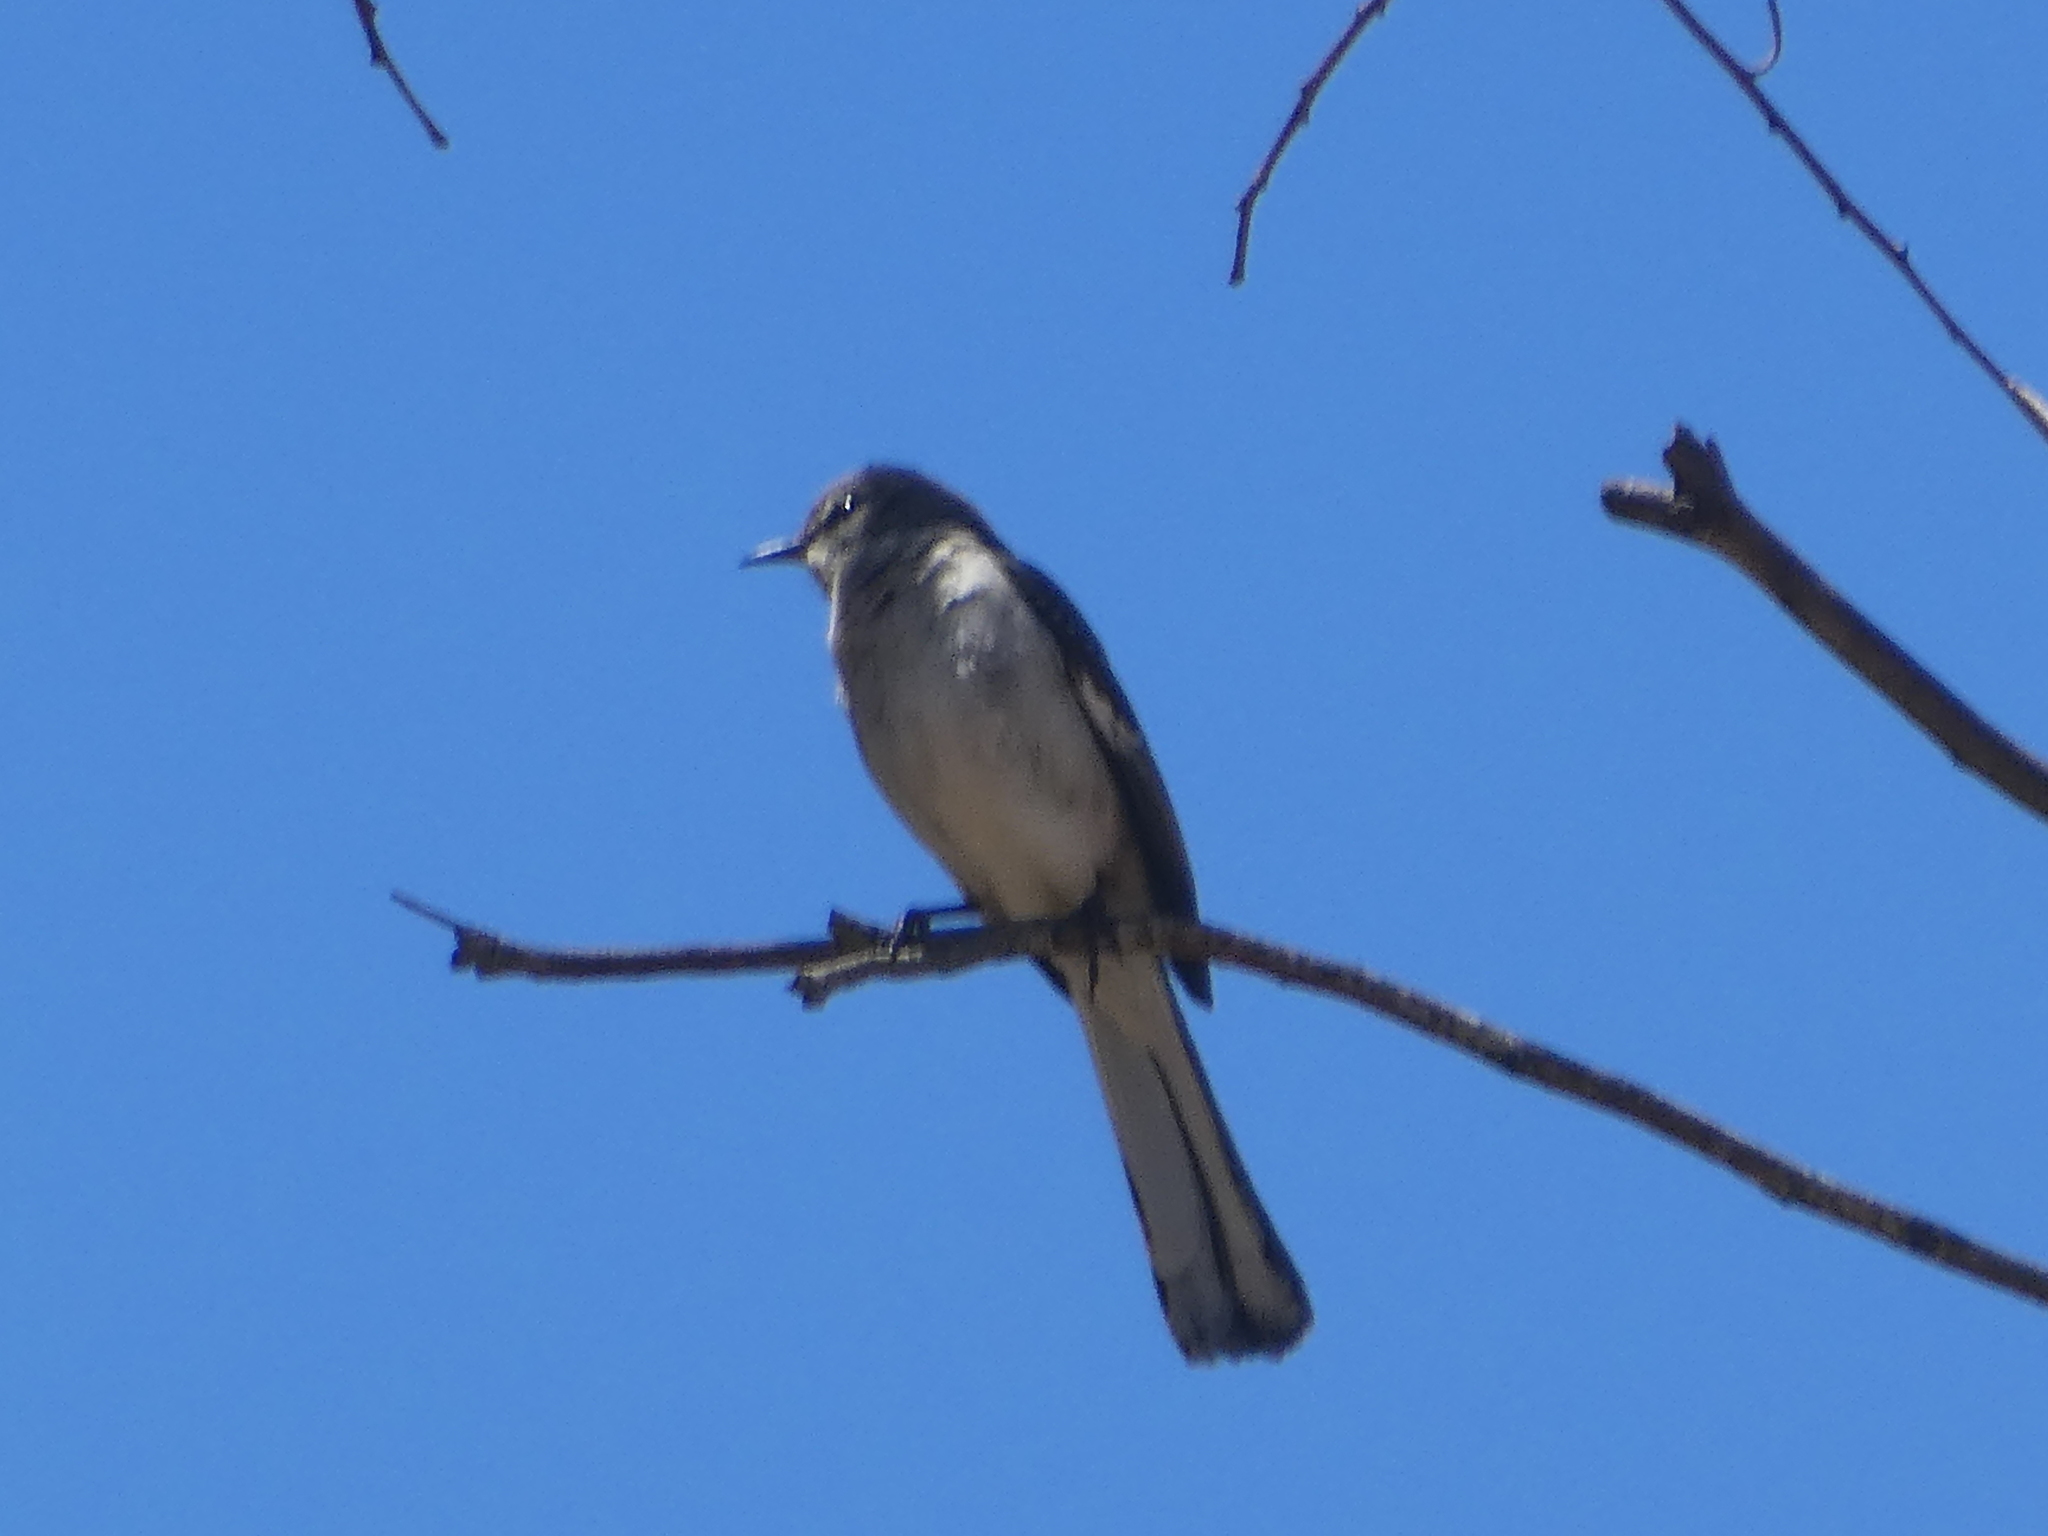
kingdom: Animalia
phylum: Chordata
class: Aves
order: Passeriformes
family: Mimidae
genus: Mimus
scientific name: Mimus polyglottos
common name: Northern mockingbird
